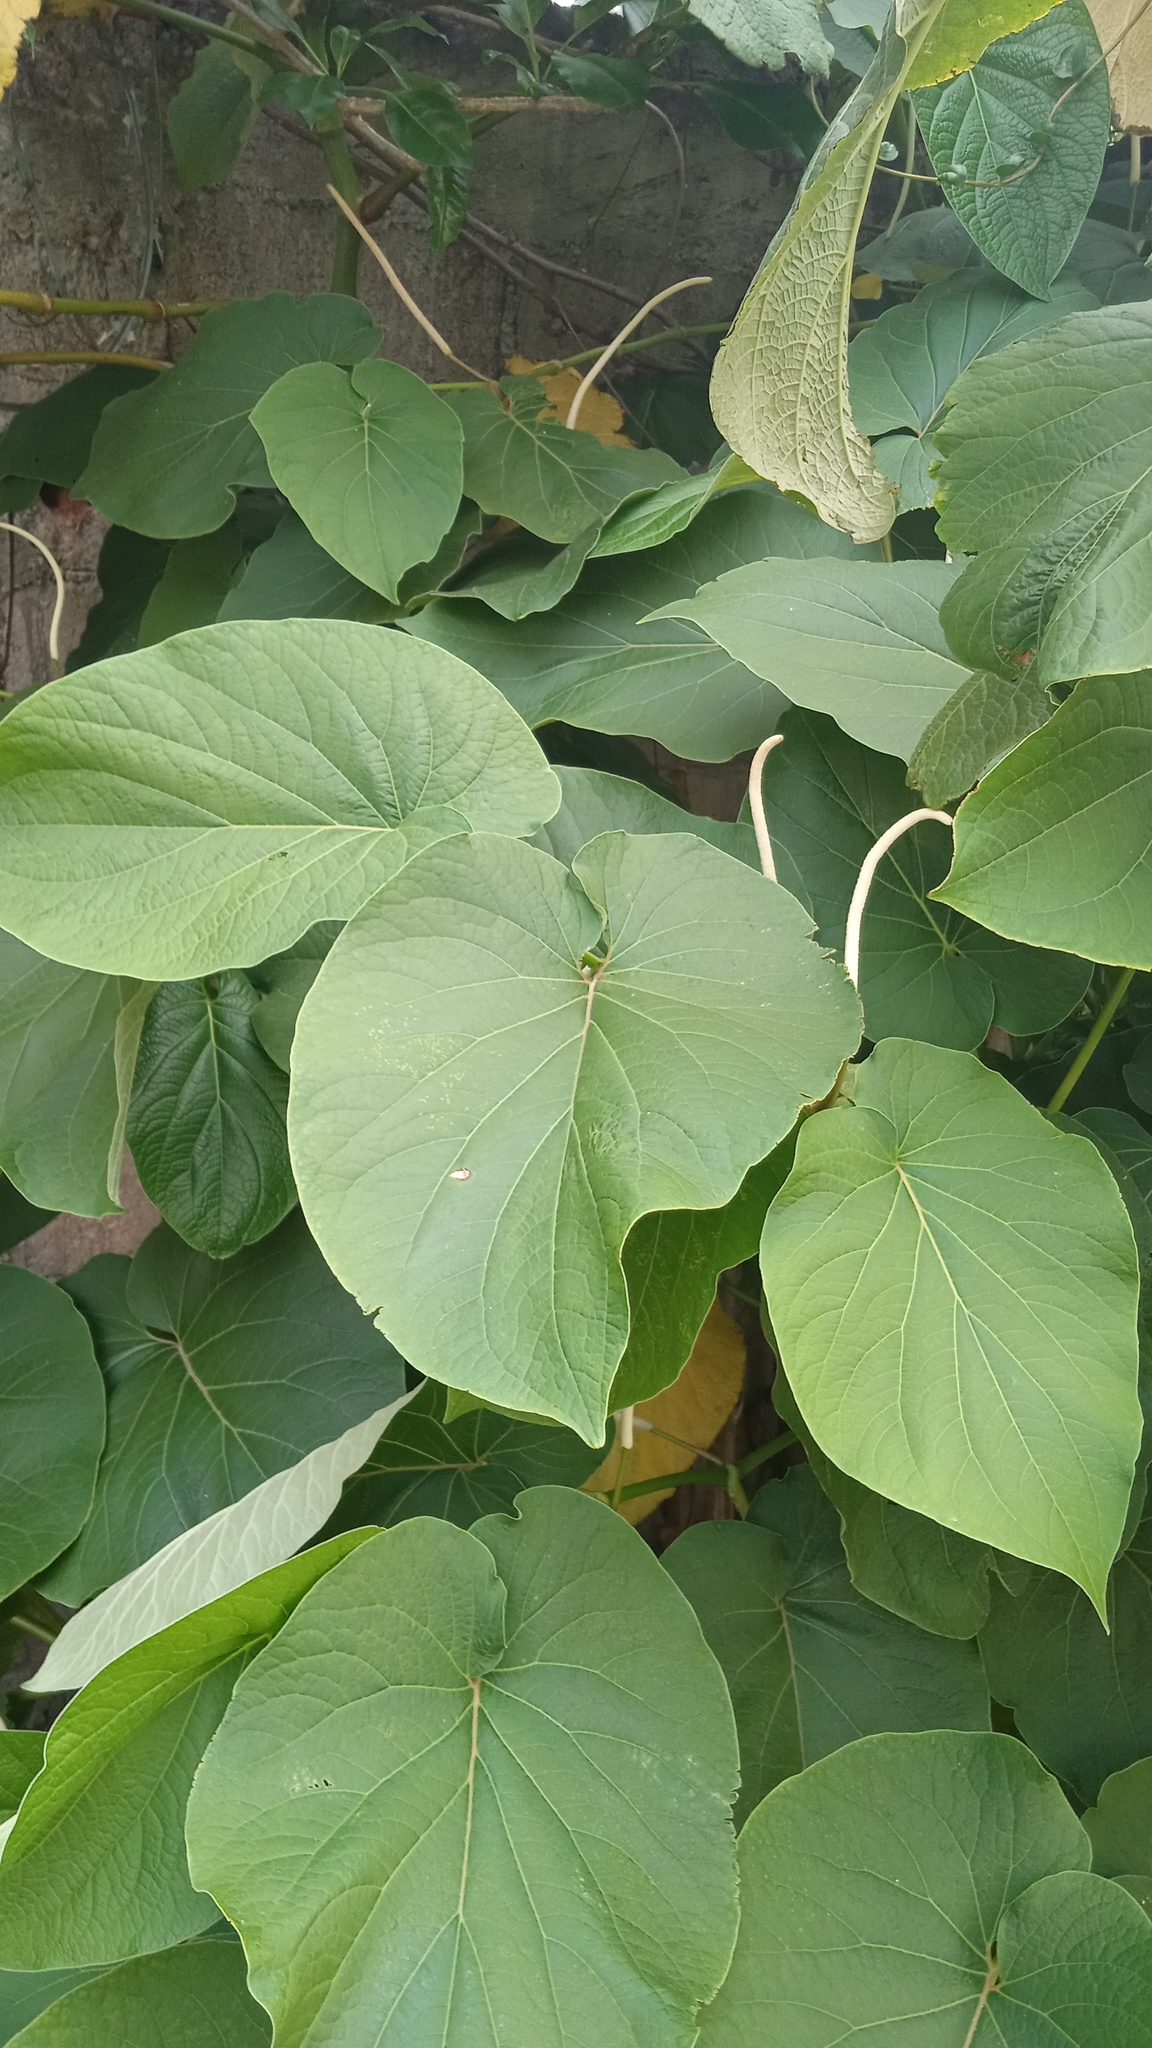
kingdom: Plantae
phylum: Tracheophyta
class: Magnoliopsida
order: Piperales
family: Piperaceae
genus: Piper
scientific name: Piper auritum
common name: Vera cruz pepper
